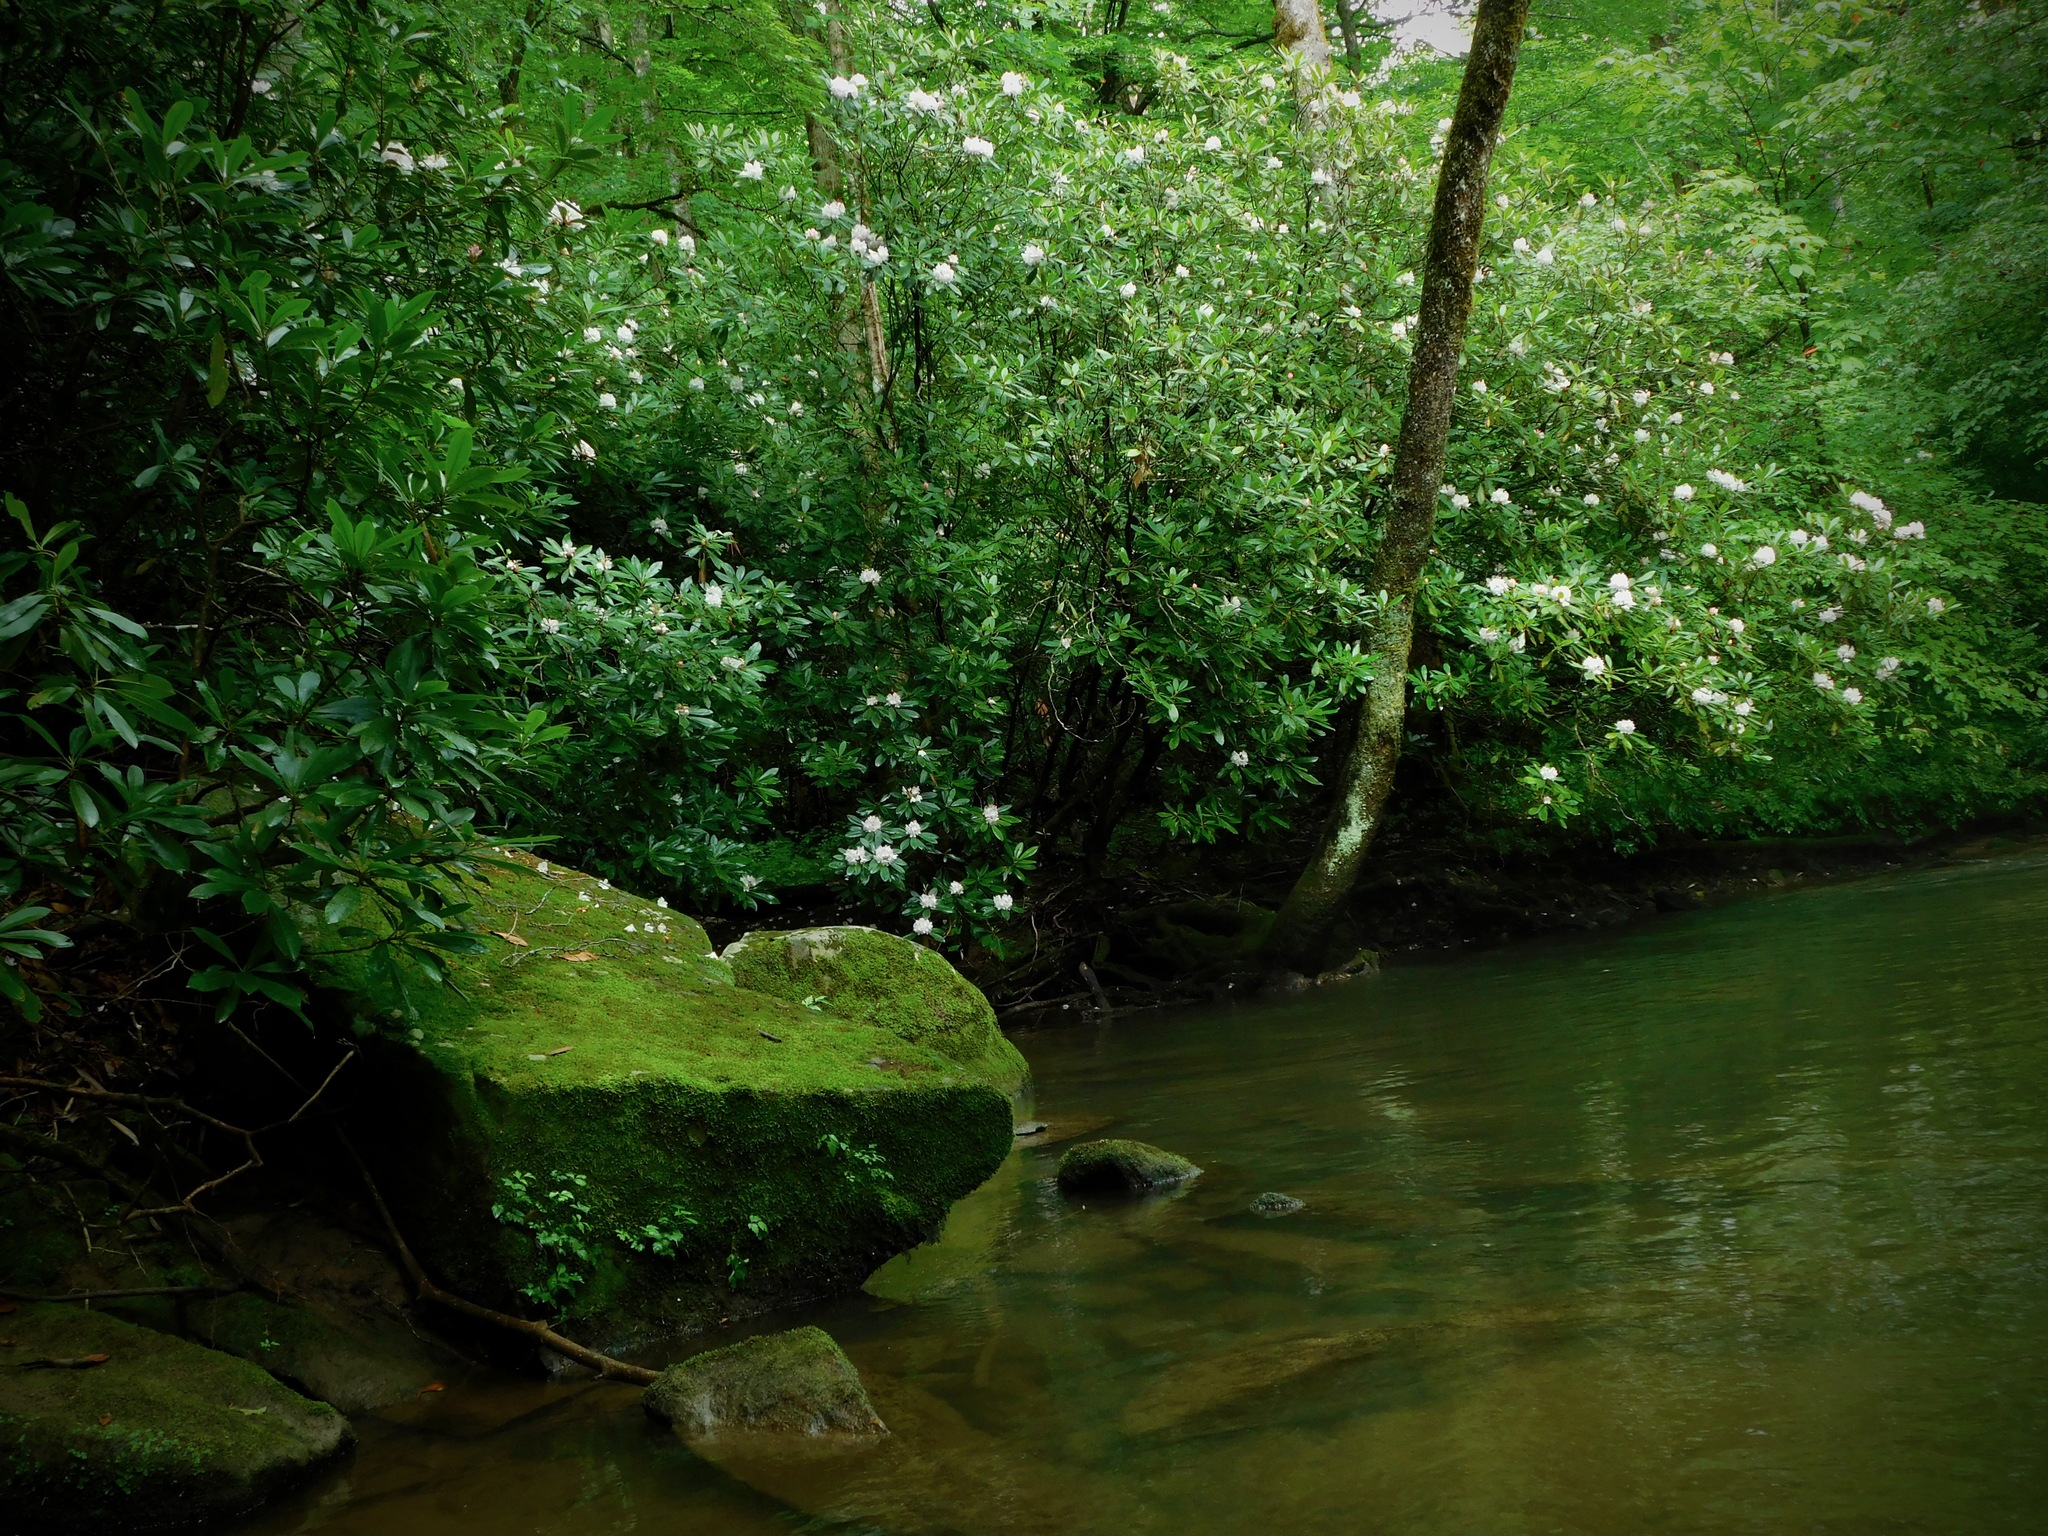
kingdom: Plantae
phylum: Tracheophyta
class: Magnoliopsida
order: Ericales
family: Ericaceae
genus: Rhododendron
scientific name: Rhododendron maximum
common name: Great rhododendron
